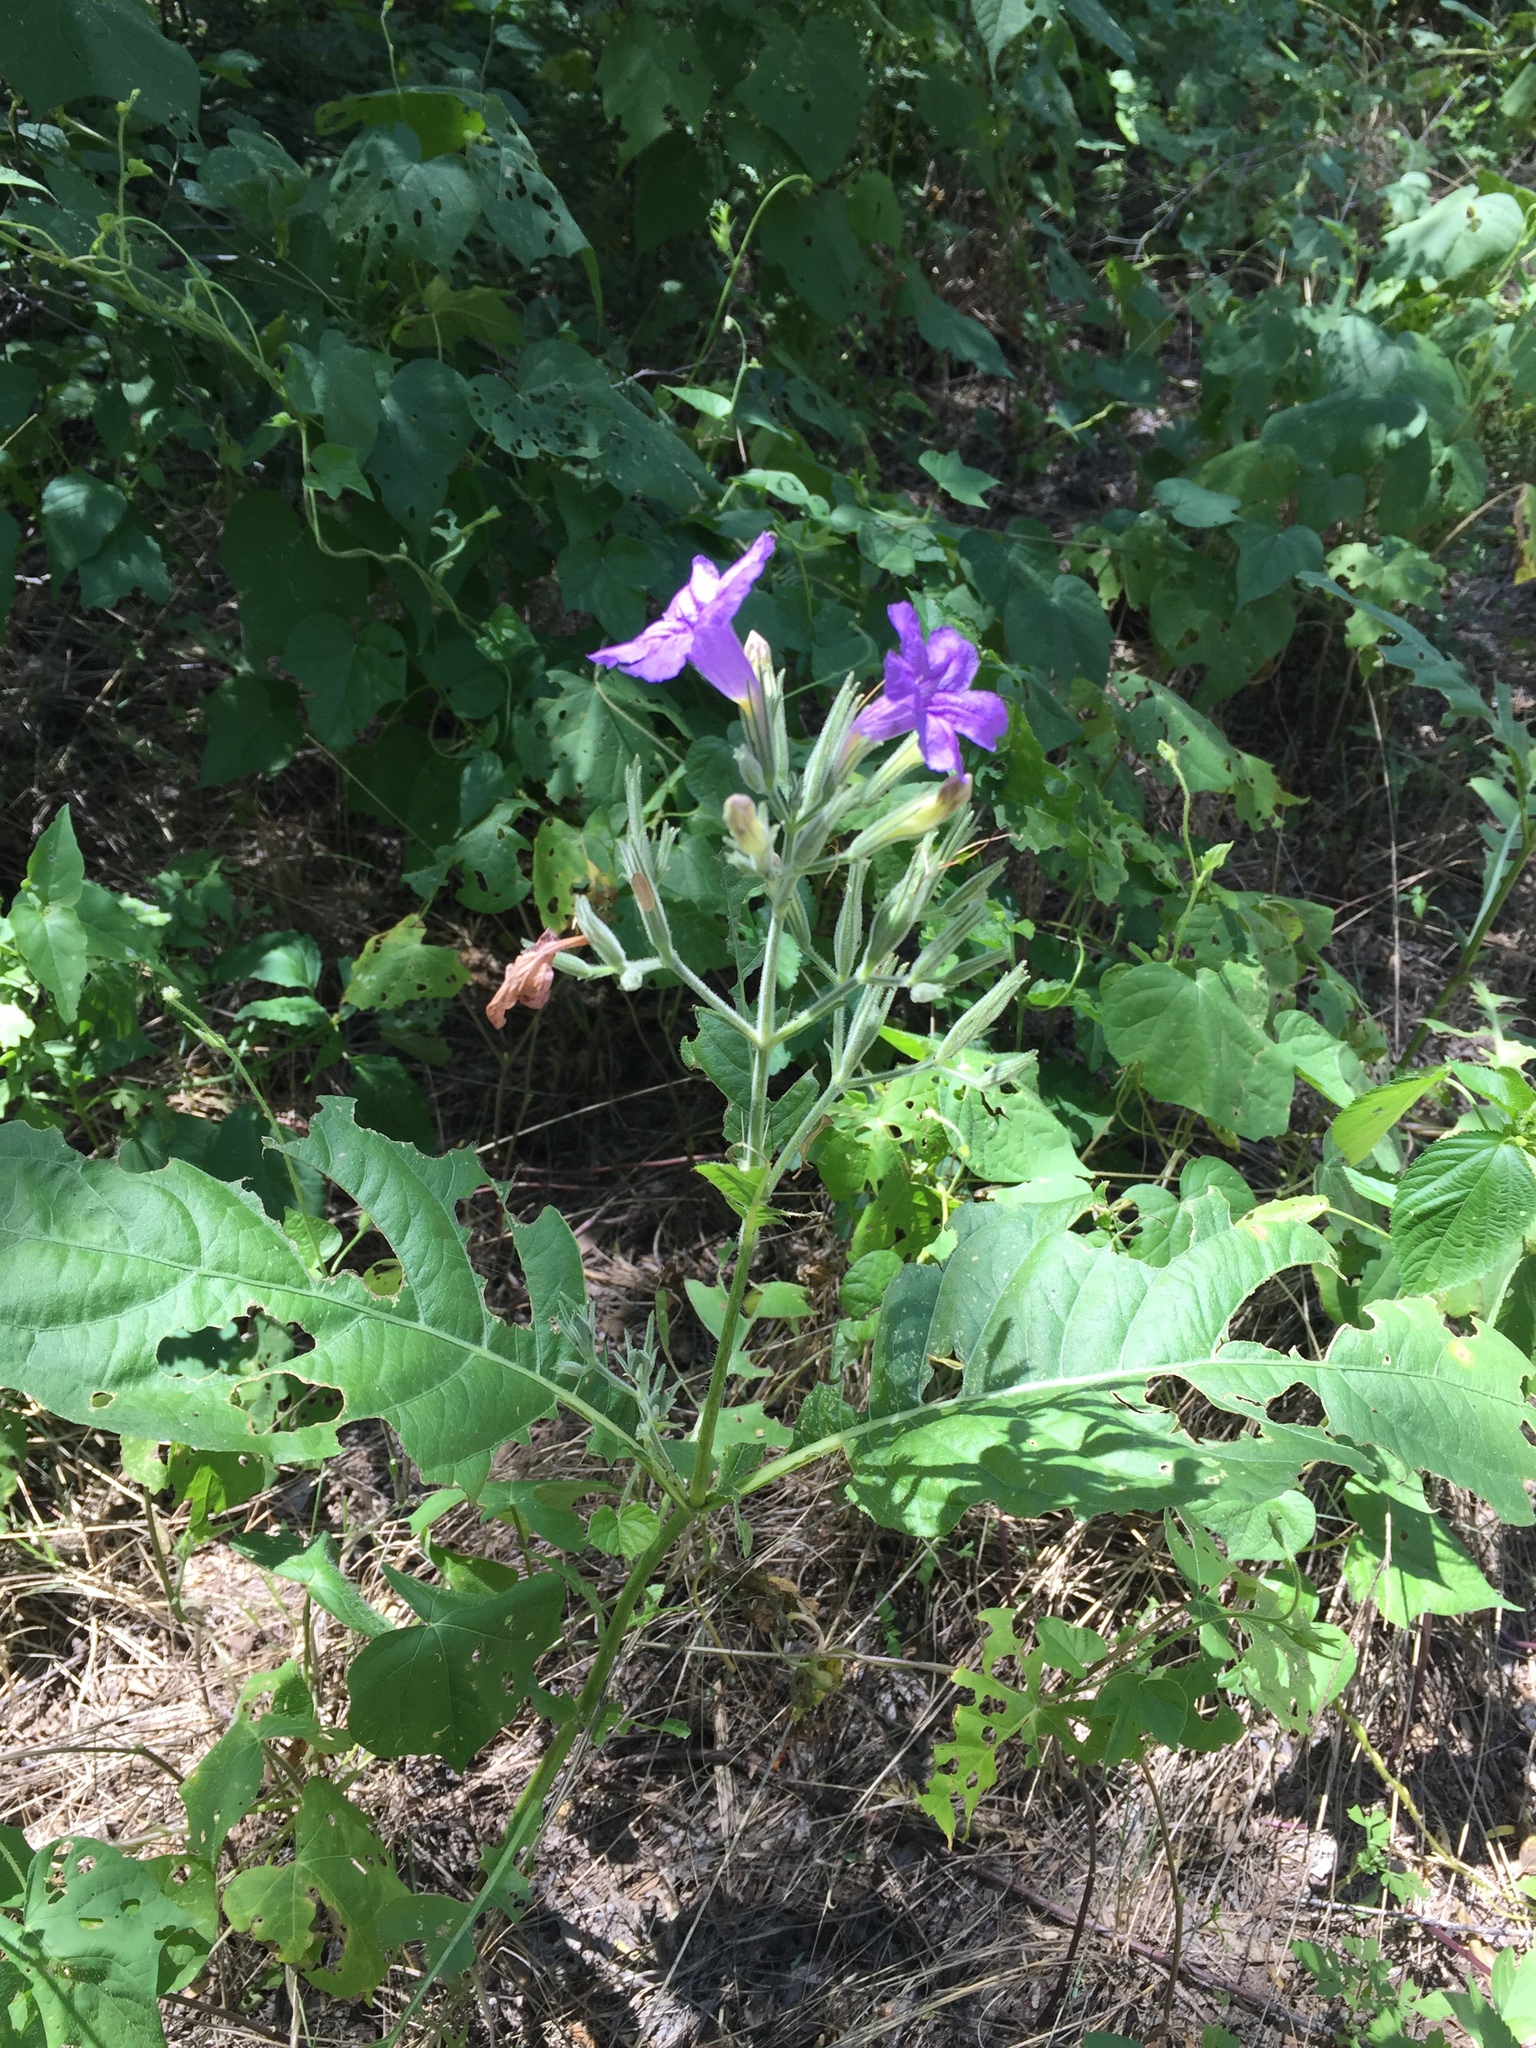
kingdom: Plantae
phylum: Tracheophyta
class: Magnoliopsida
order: Lamiales
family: Acanthaceae
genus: Ruellia
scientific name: Ruellia ciliatiflora
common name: Hairyflower wild petunia
